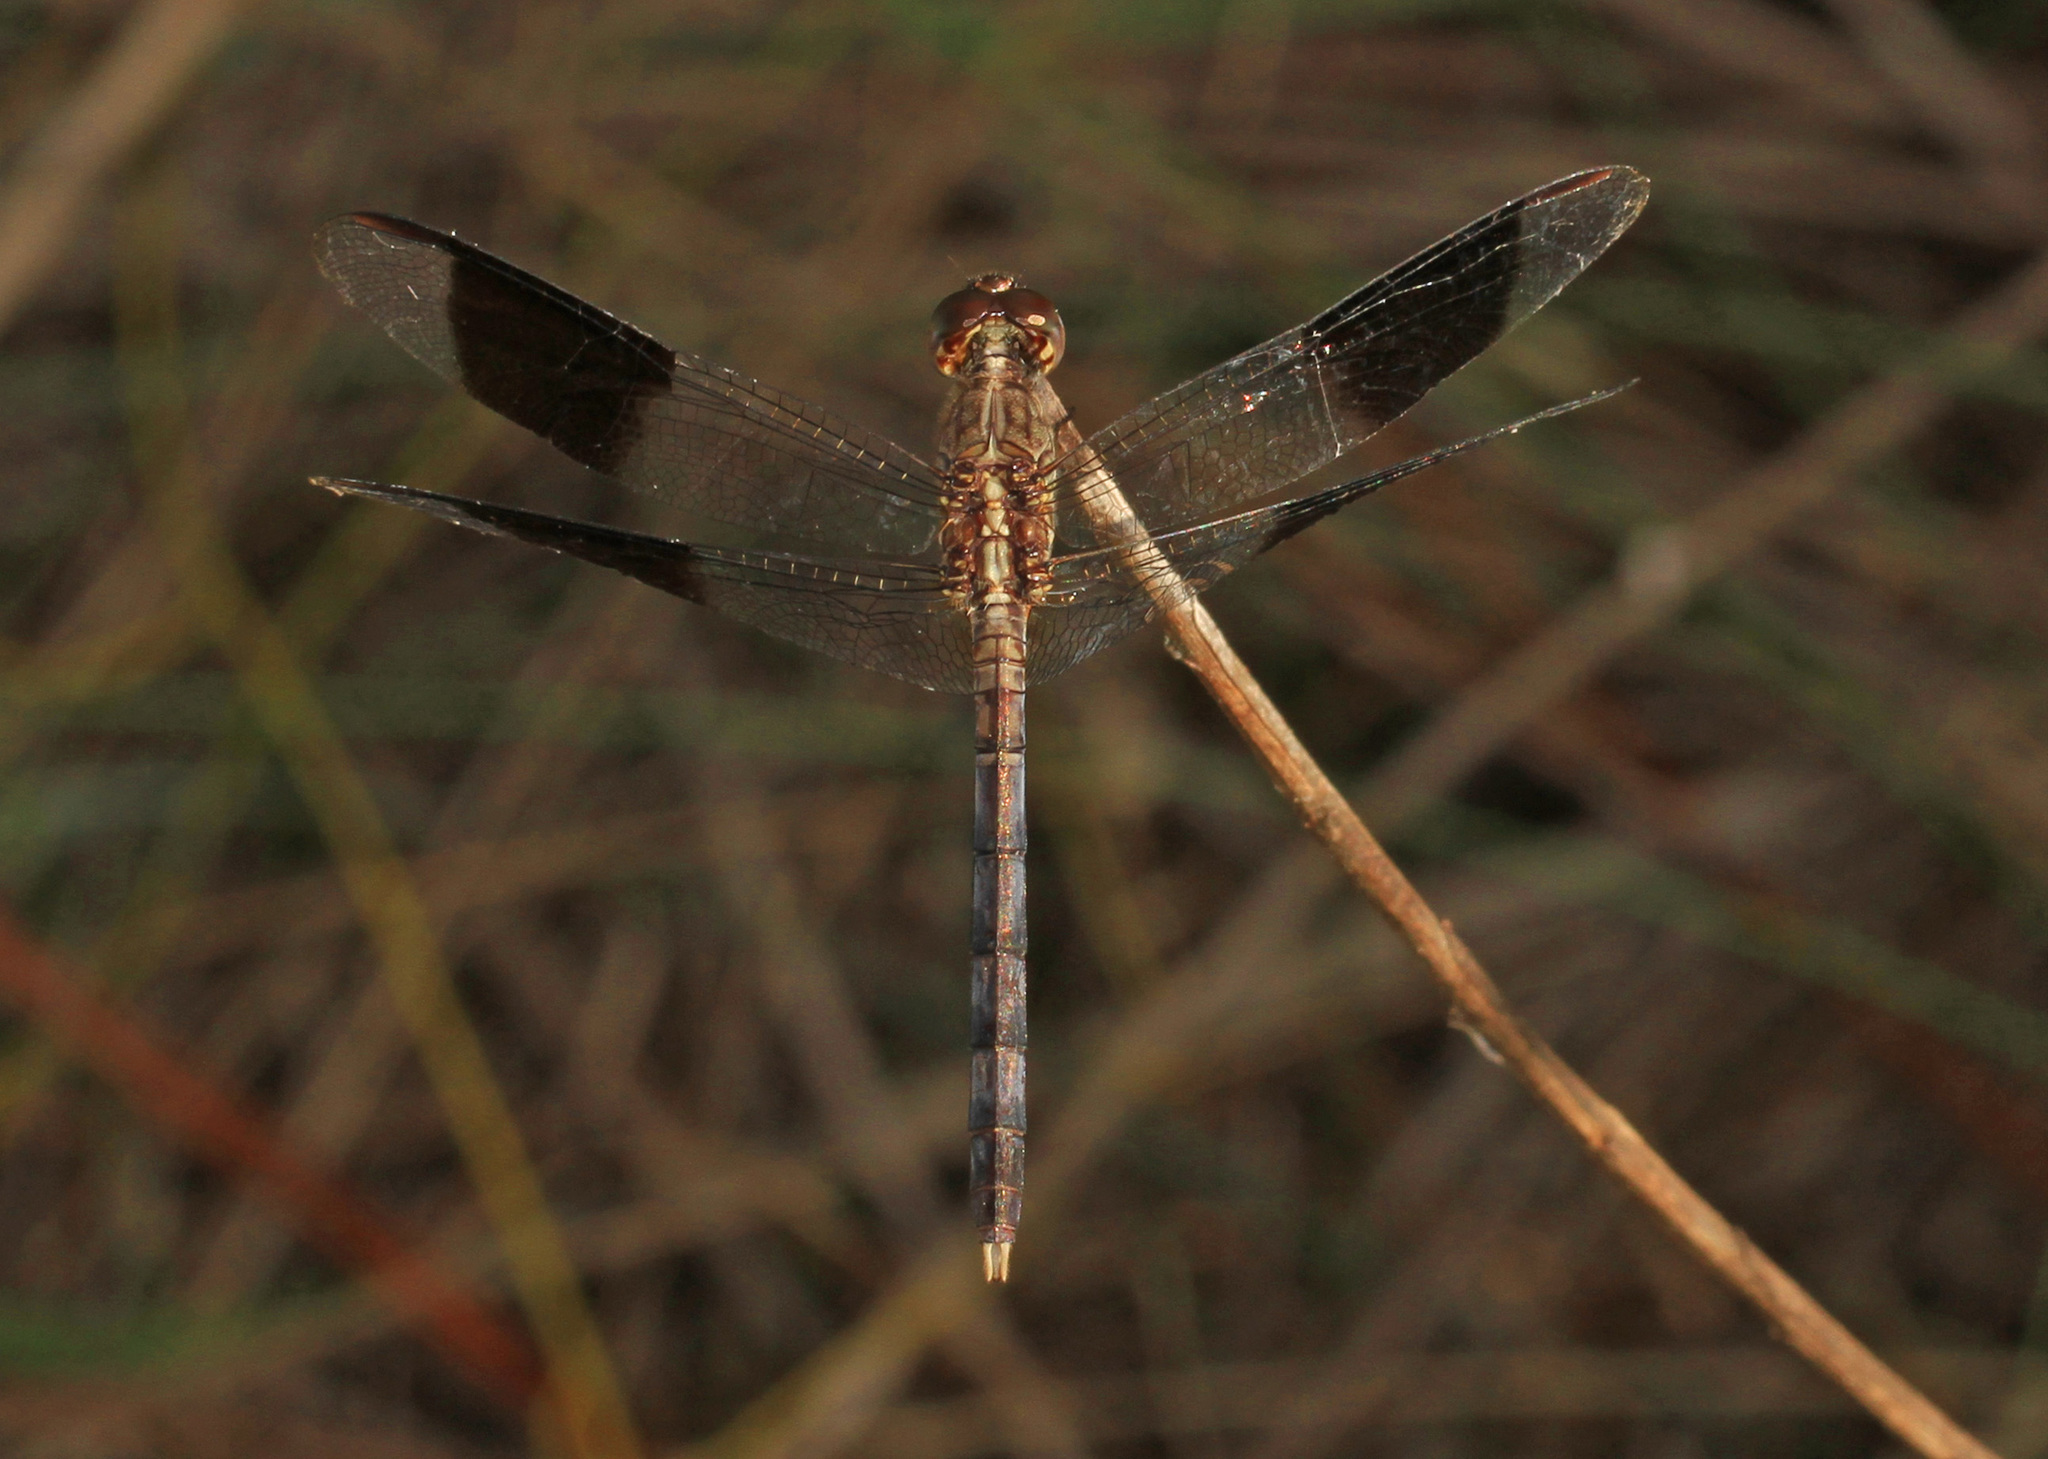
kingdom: Animalia
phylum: Arthropoda
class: Insecta
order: Odonata
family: Libellulidae
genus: Erythrodiplax
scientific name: Erythrodiplax umbrata
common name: Band-winged dragonlet
